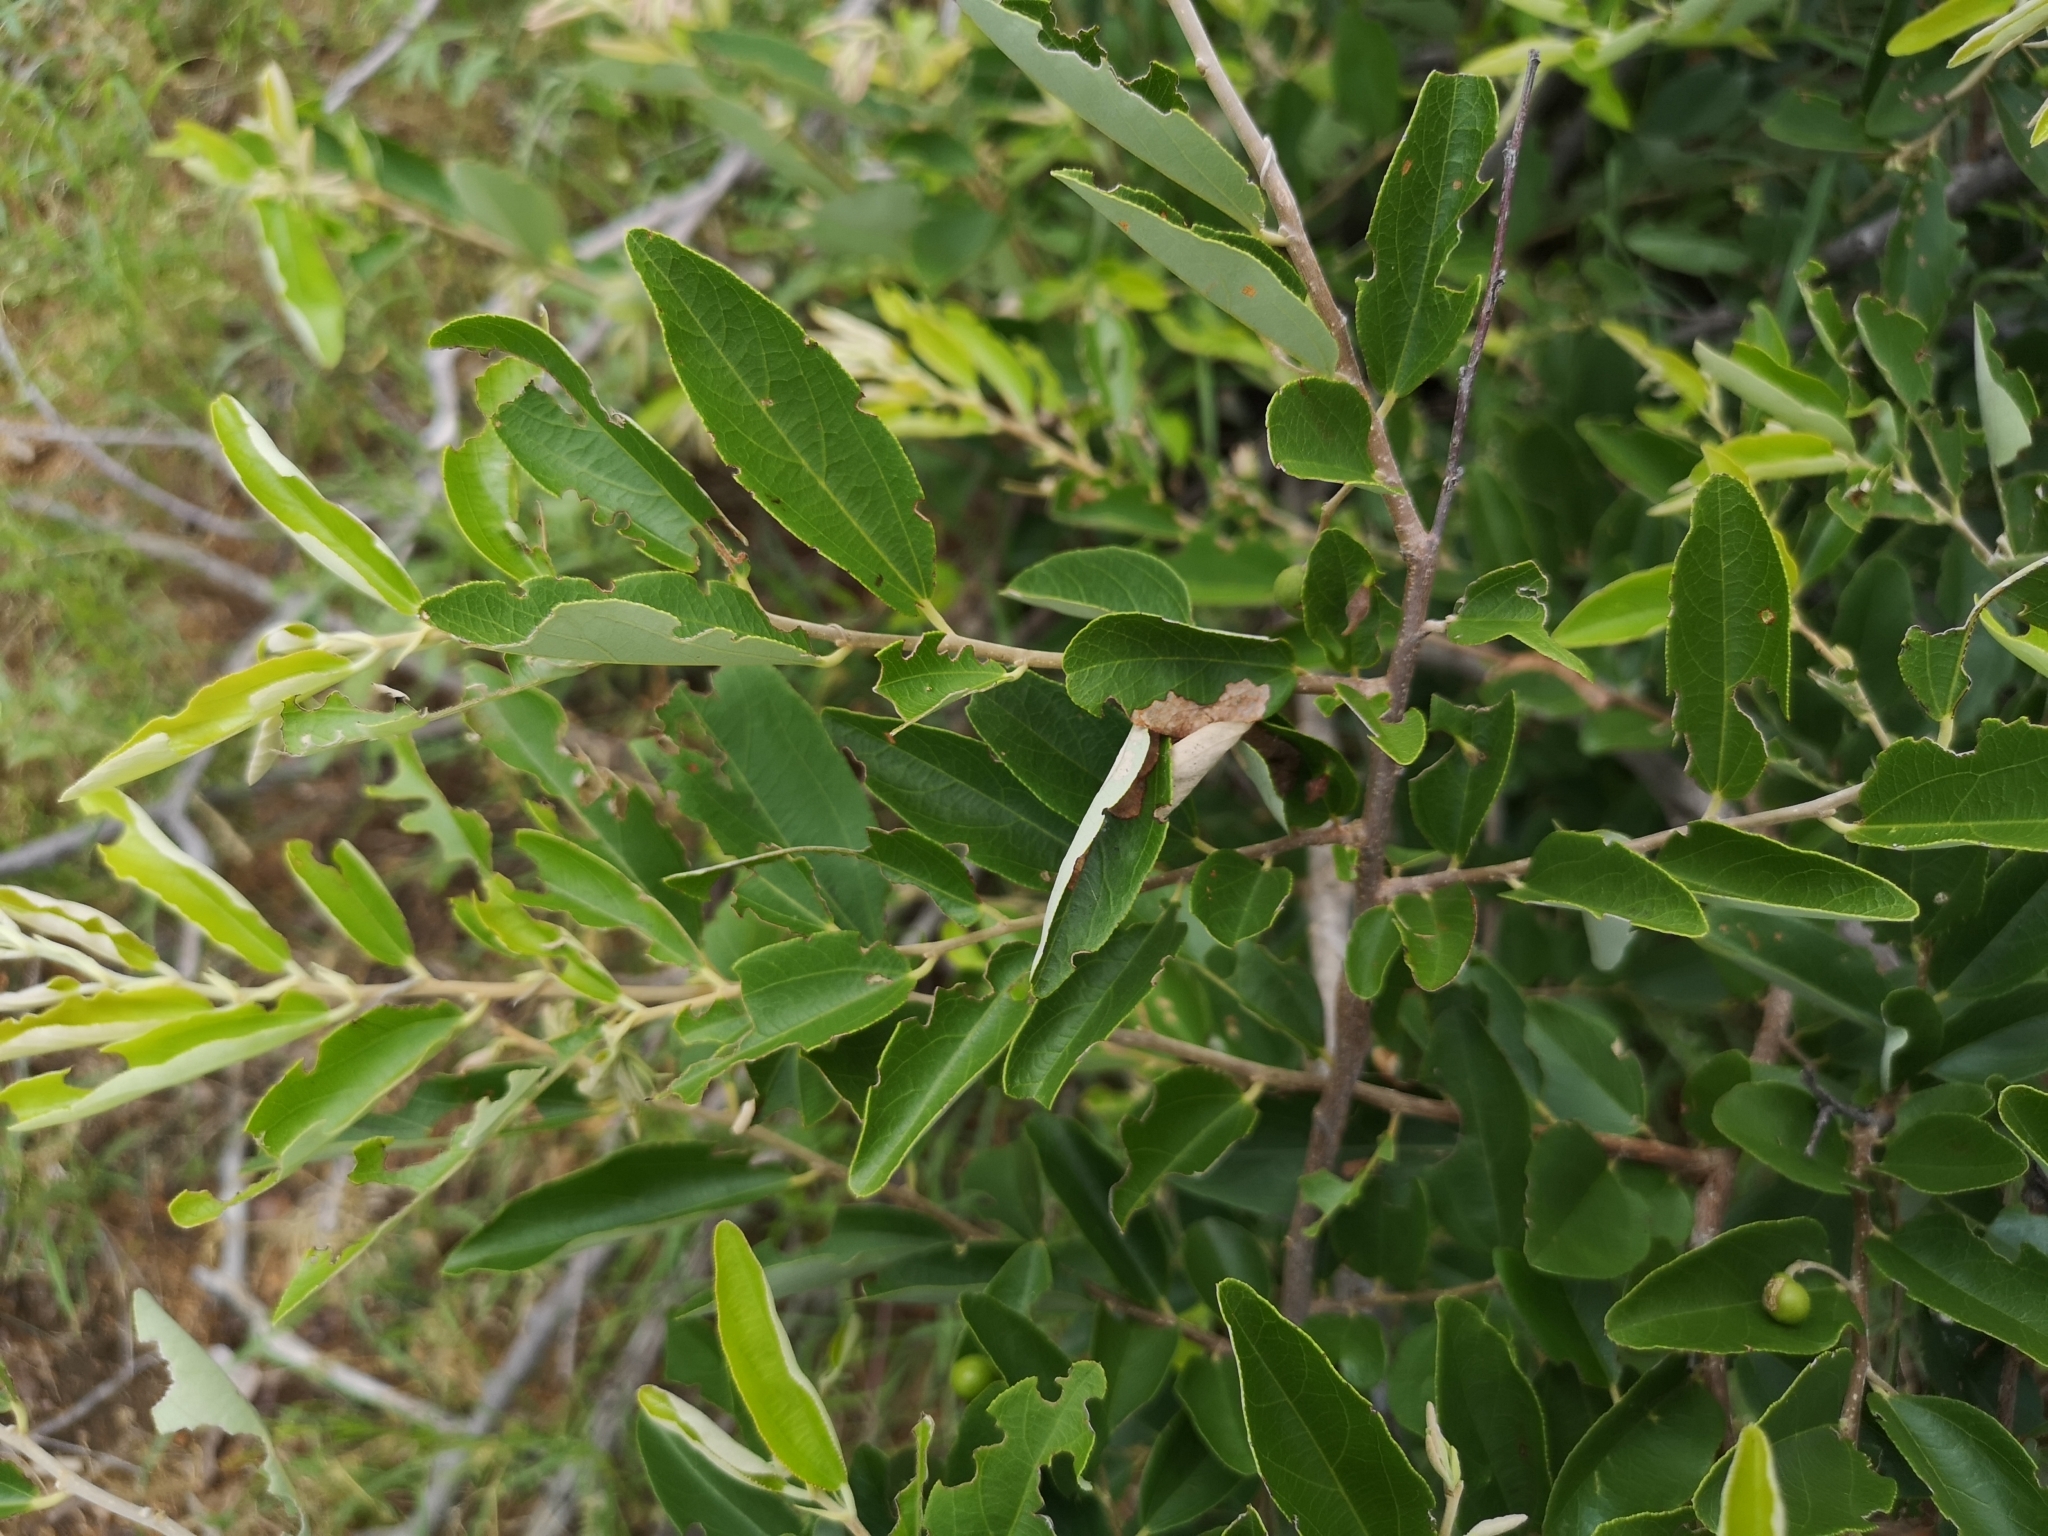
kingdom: Plantae
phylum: Tracheophyta
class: Magnoliopsida
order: Malvales
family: Malvaceae
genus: Grewia
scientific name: Grewia bicolor
